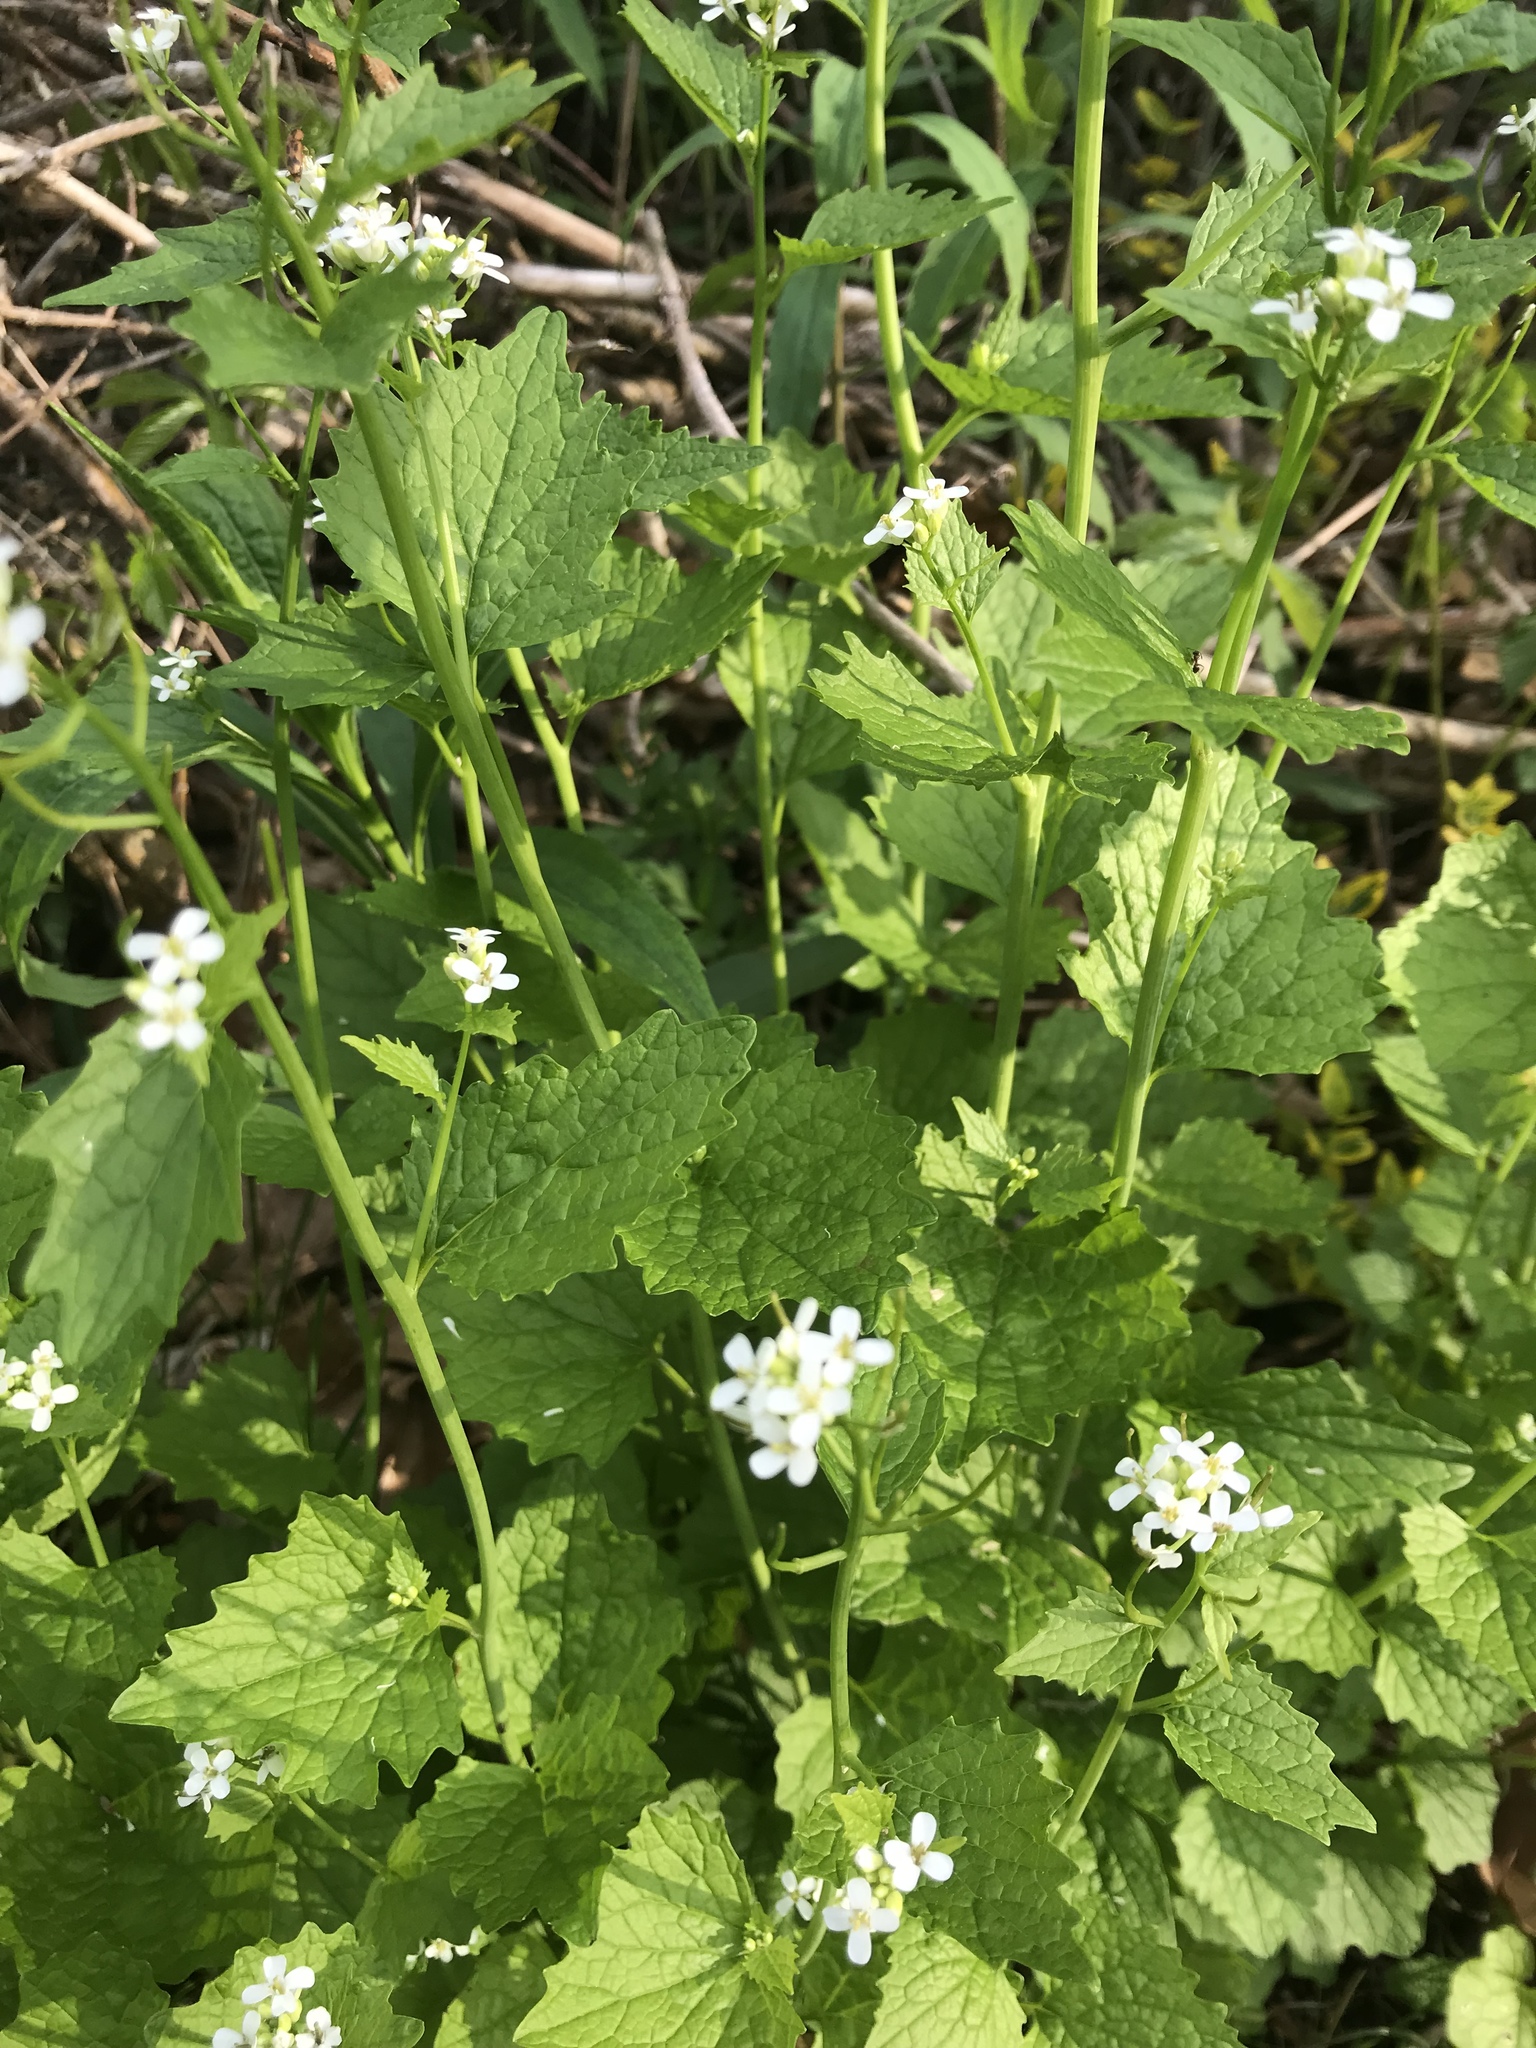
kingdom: Plantae
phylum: Tracheophyta
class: Magnoliopsida
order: Brassicales
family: Brassicaceae
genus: Alliaria
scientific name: Alliaria petiolata
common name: Garlic mustard
